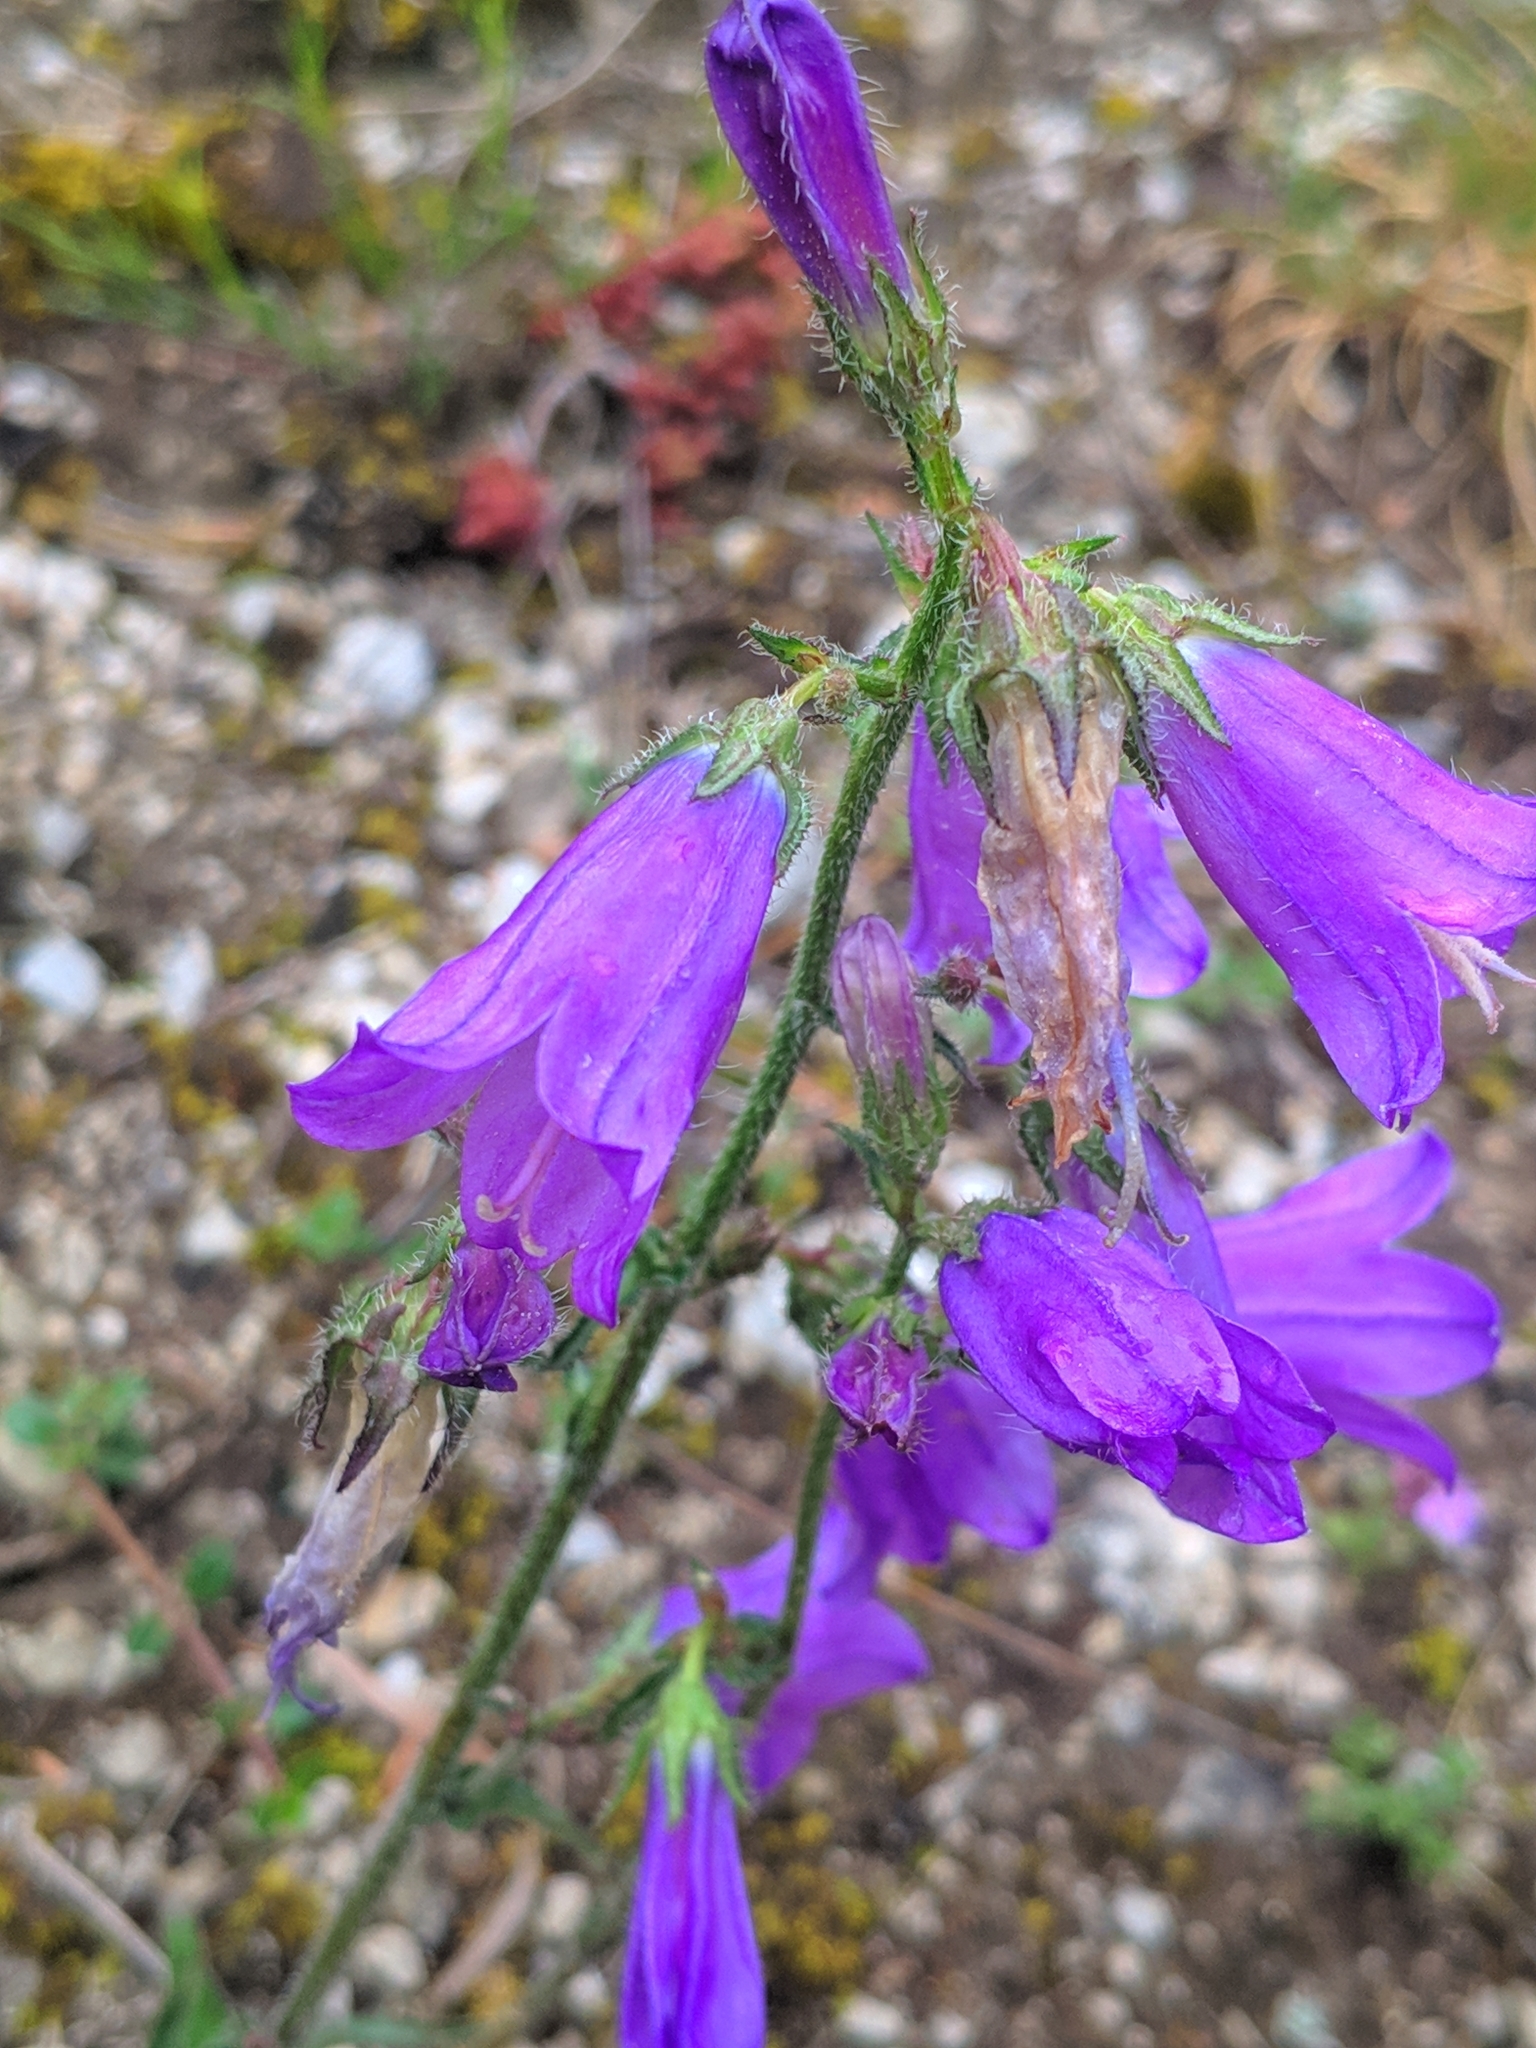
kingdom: Plantae
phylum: Tracheophyta
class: Magnoliopsida
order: Asterales
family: Campanulaceae
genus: Campanula
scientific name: Campanula sibirica
